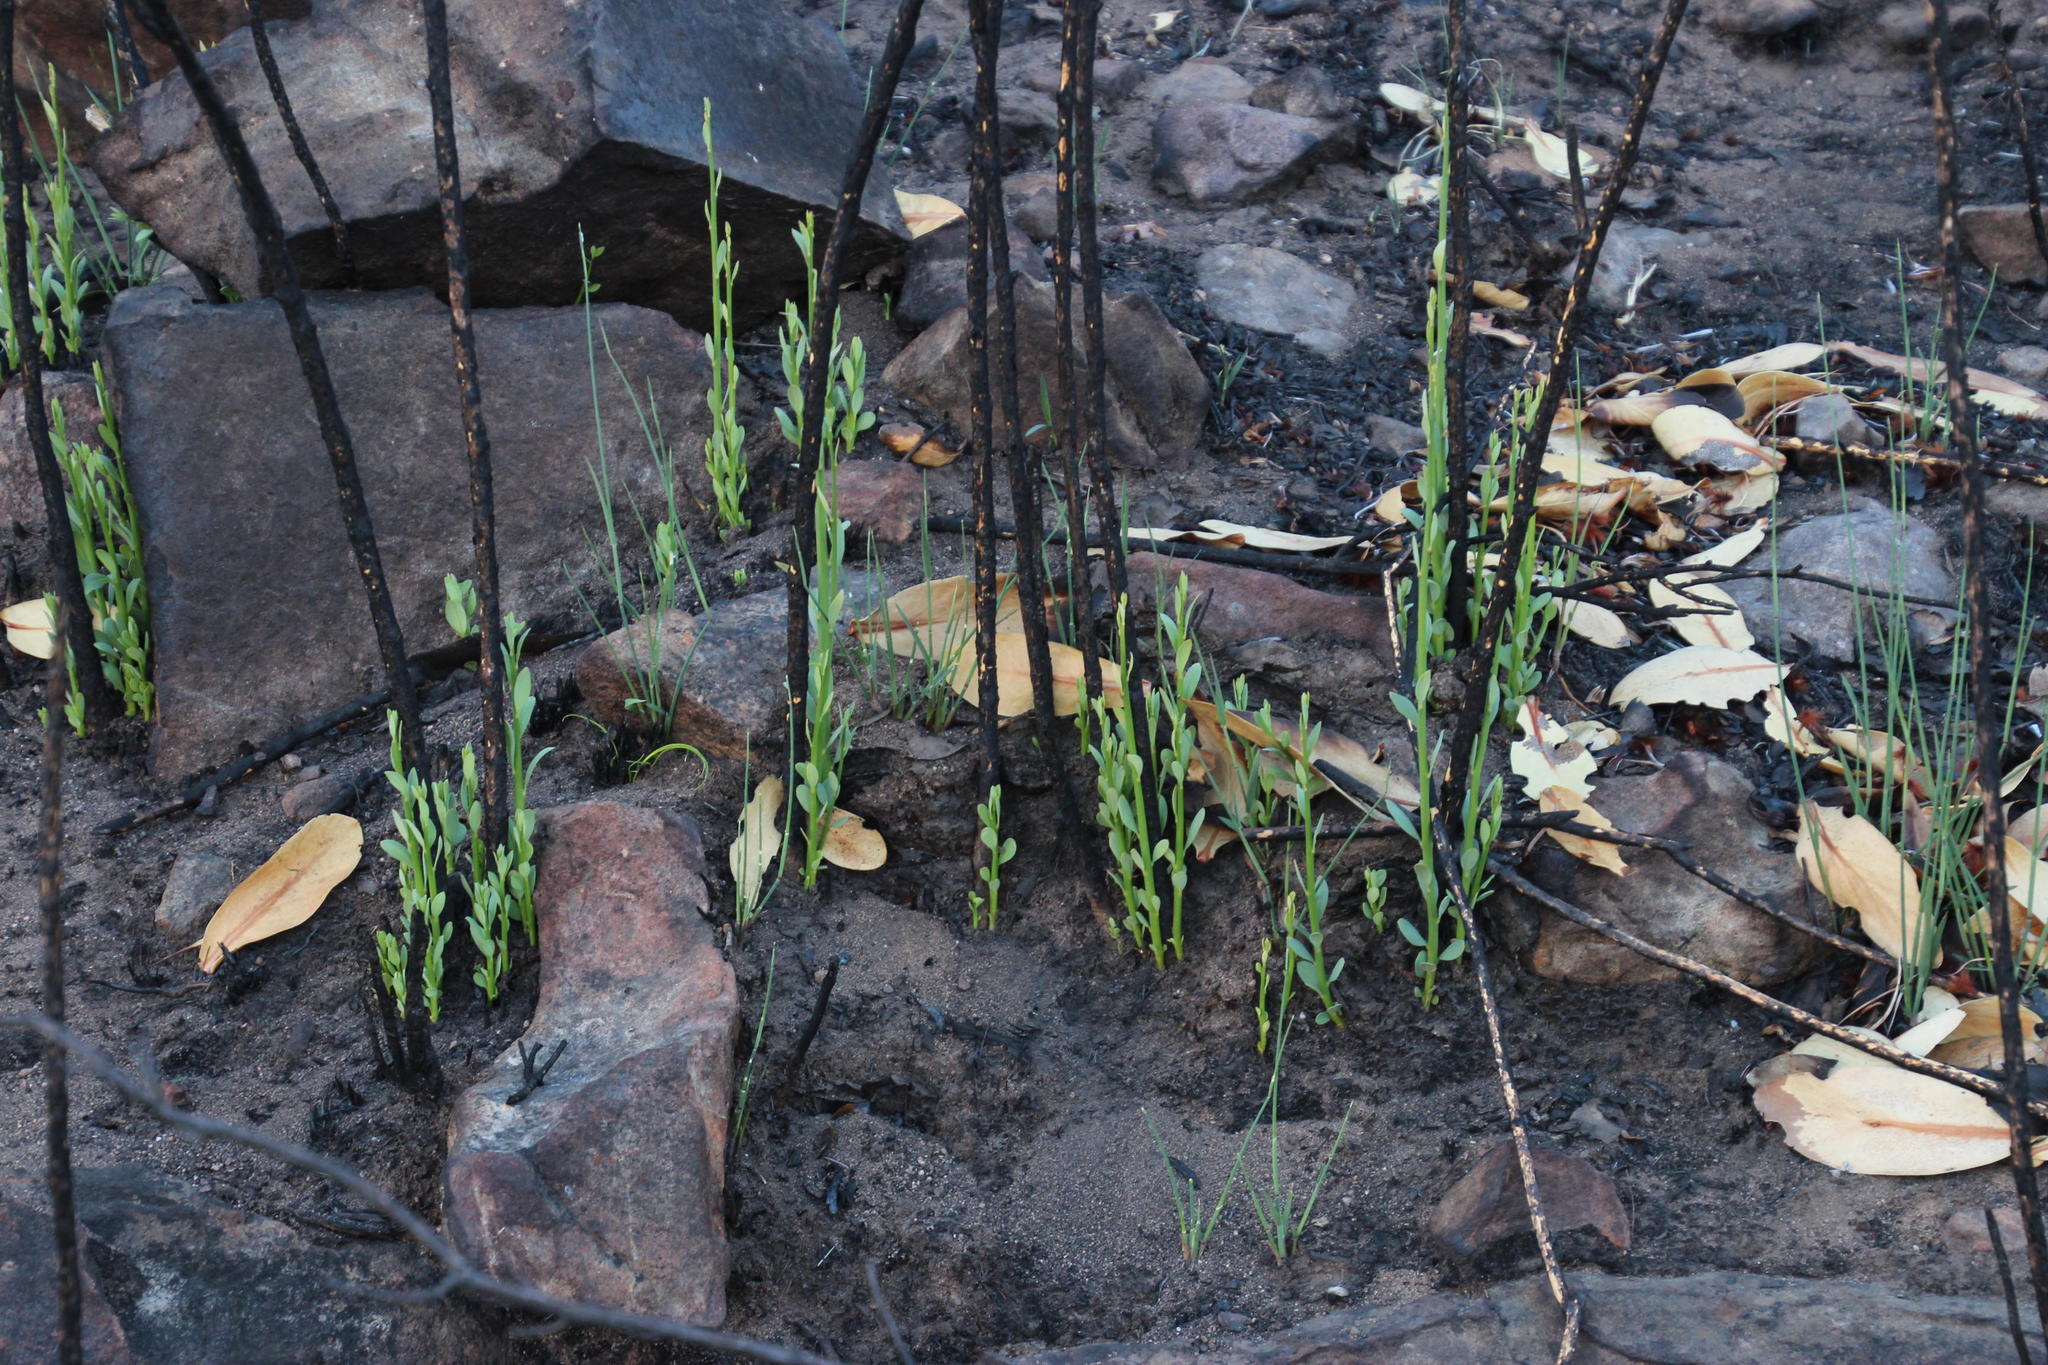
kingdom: Plantae
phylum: Tracheophyta
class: Magnoliopsida
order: Solanales
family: Montiniaceae
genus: Montinia
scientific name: Montinia caryophyllacea
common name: Wild clove-bush
